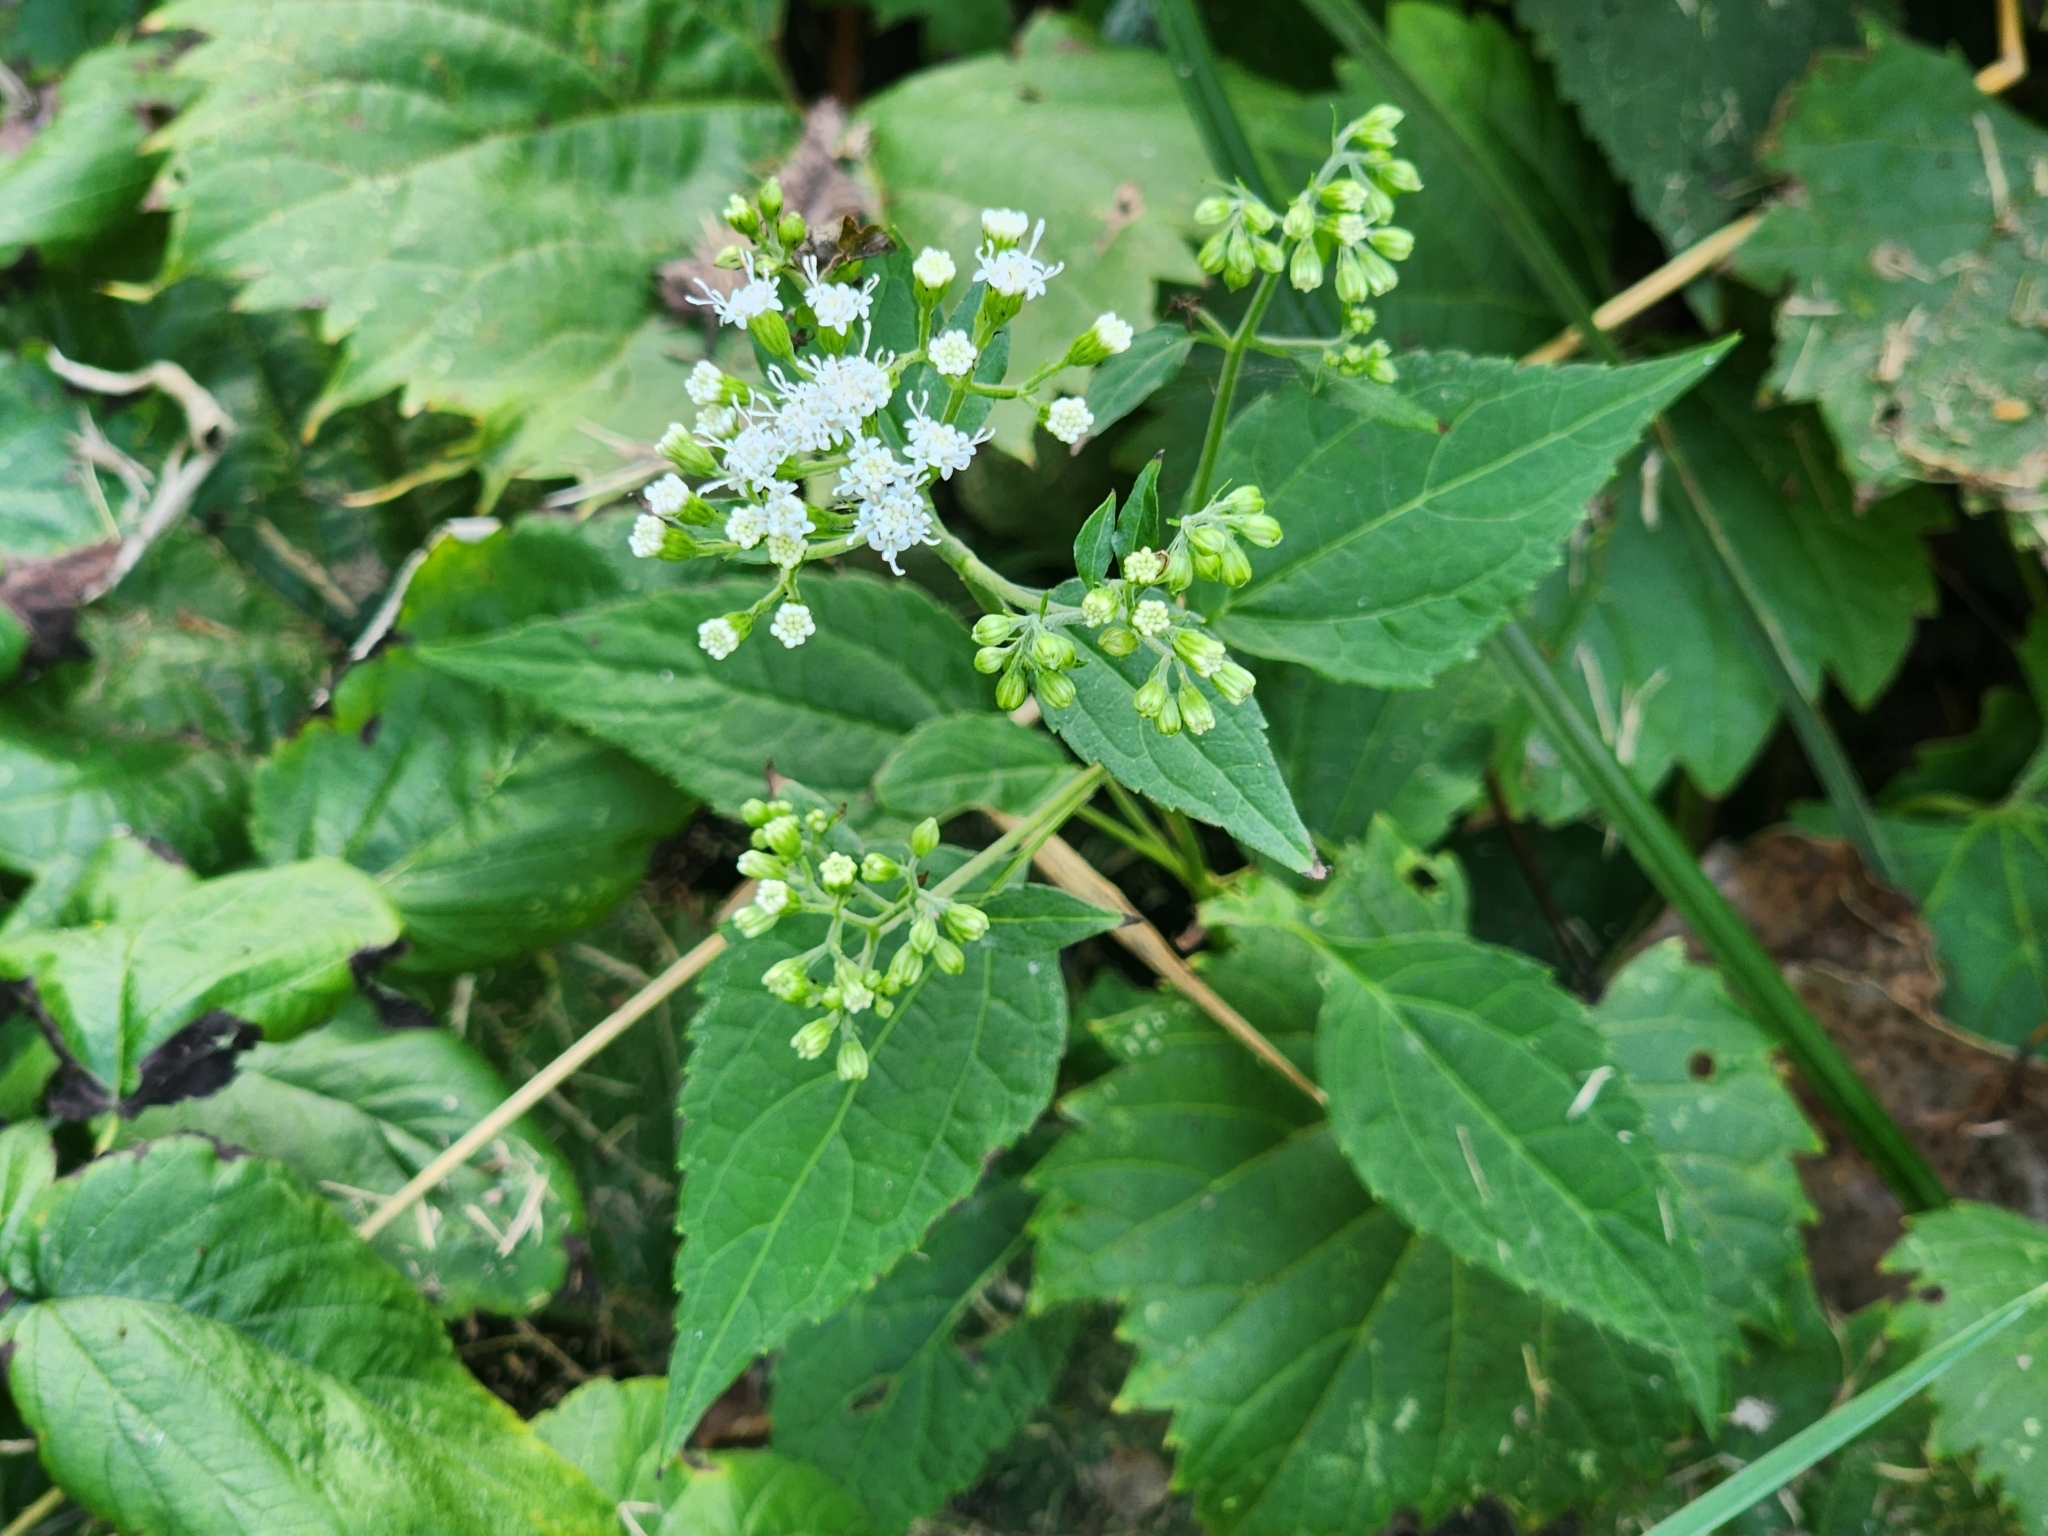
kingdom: Plantae
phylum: Tracheophyta
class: Magnoliopsida
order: Asterales
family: Asteraceae
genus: Ageratina
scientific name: Ageratina altissima
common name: White snakeroot
